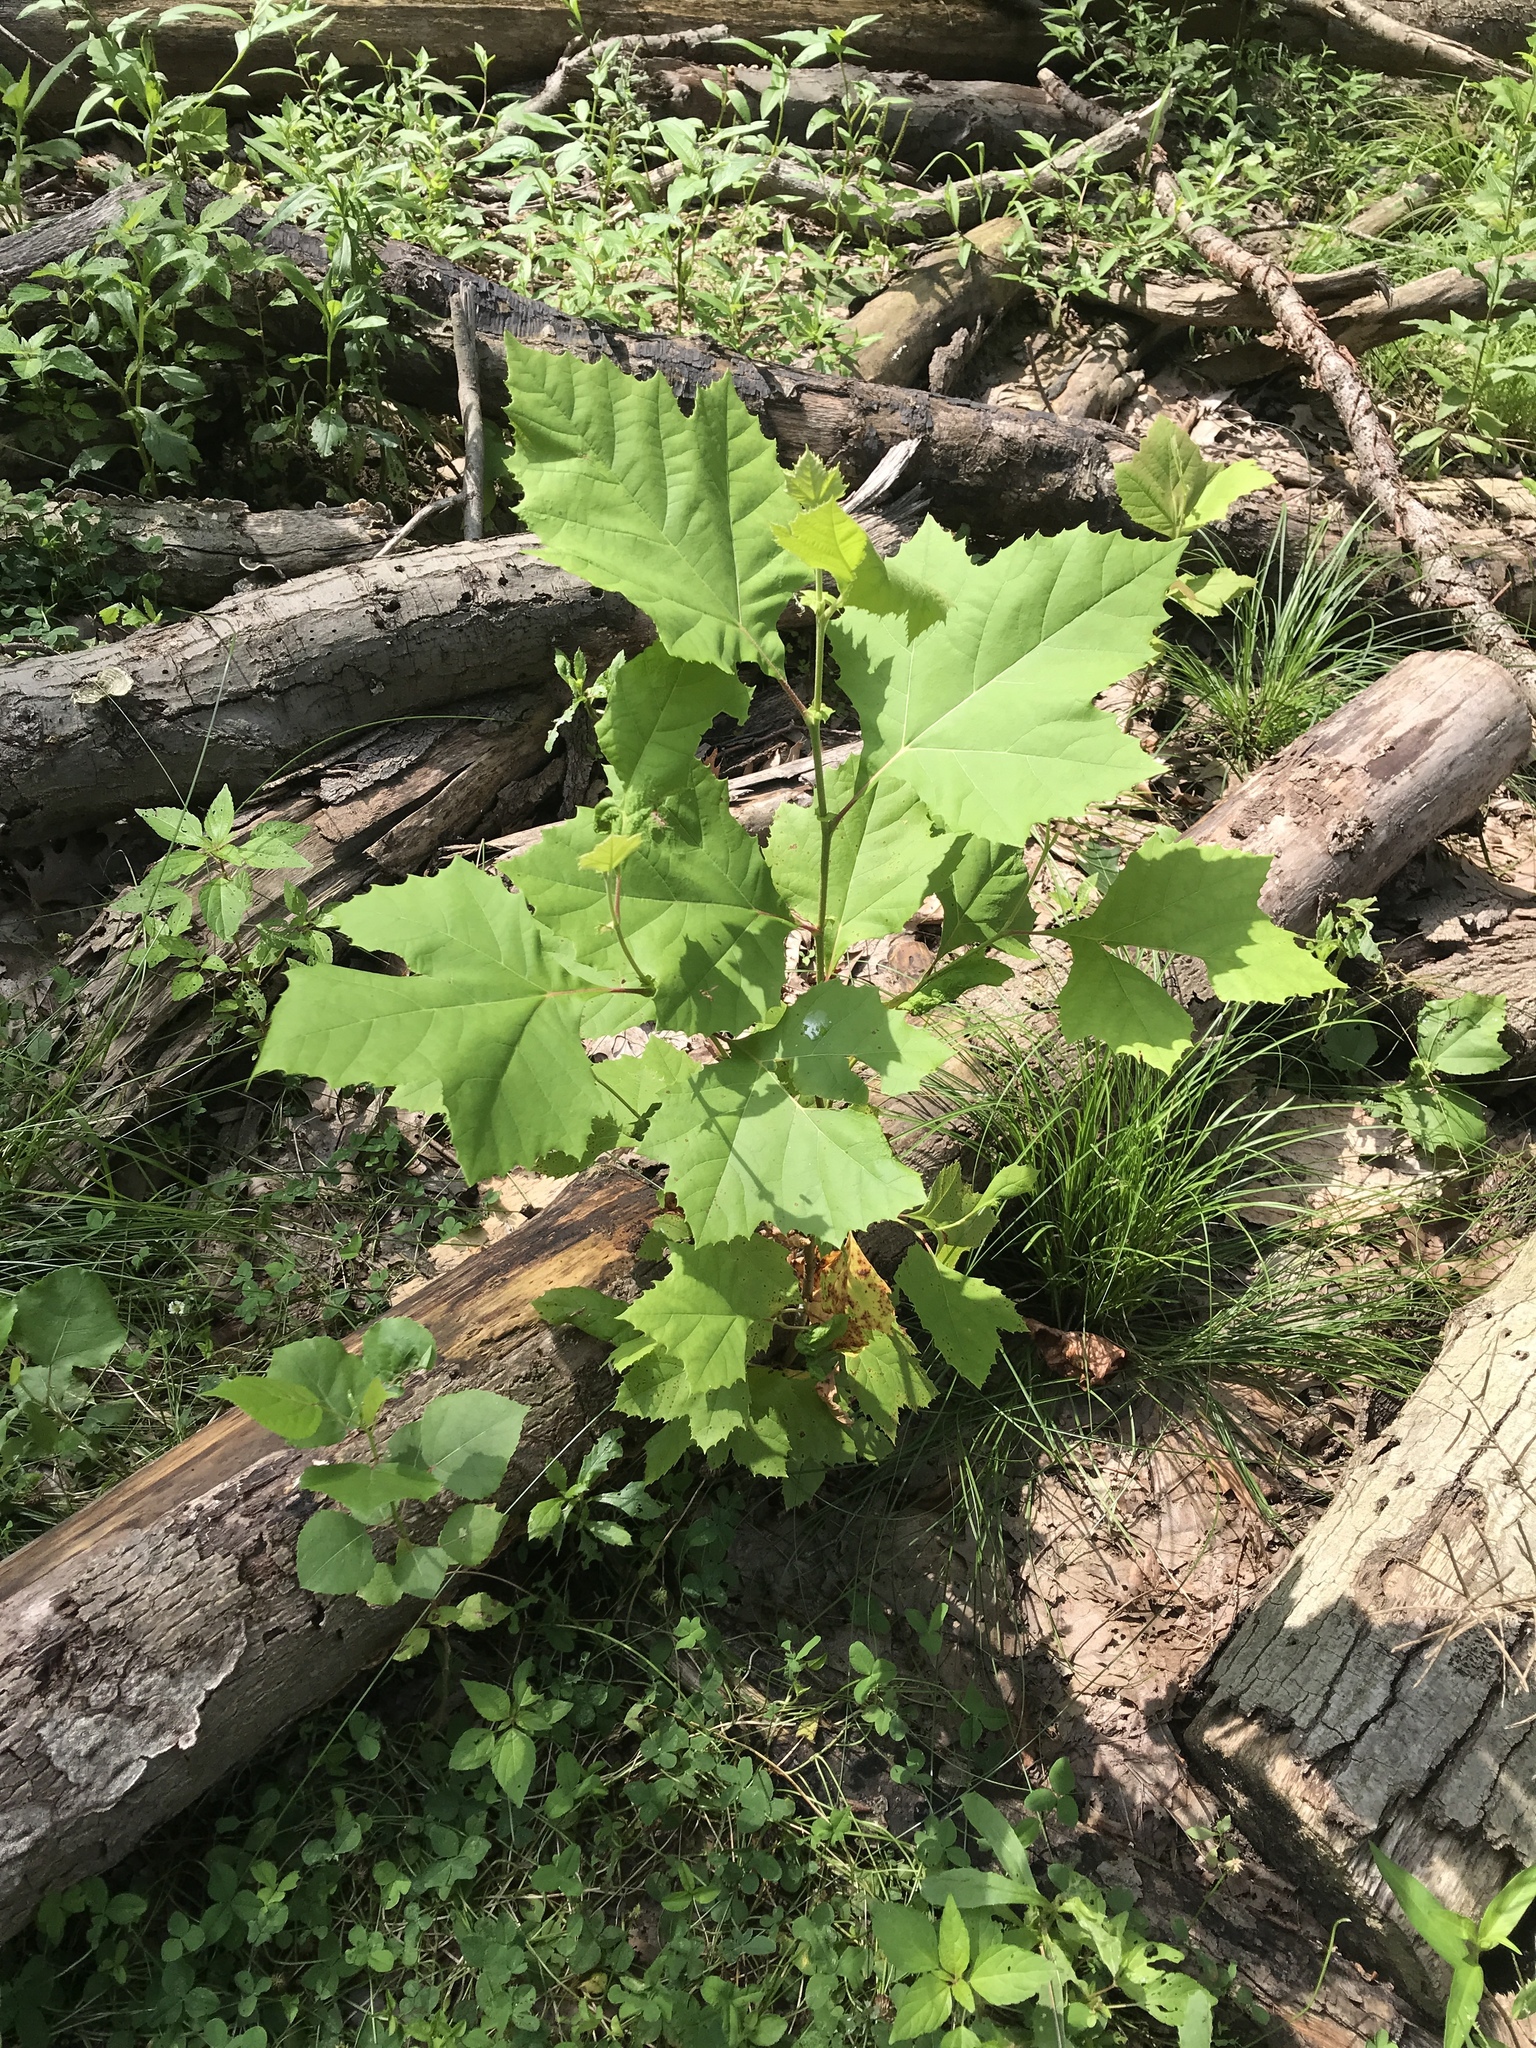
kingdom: Plantae
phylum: Tracheophyta
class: Magnoliopsida
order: Proteales
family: Platanaceae
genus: Platanus
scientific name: Platanus occidentalis
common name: American sycamore
